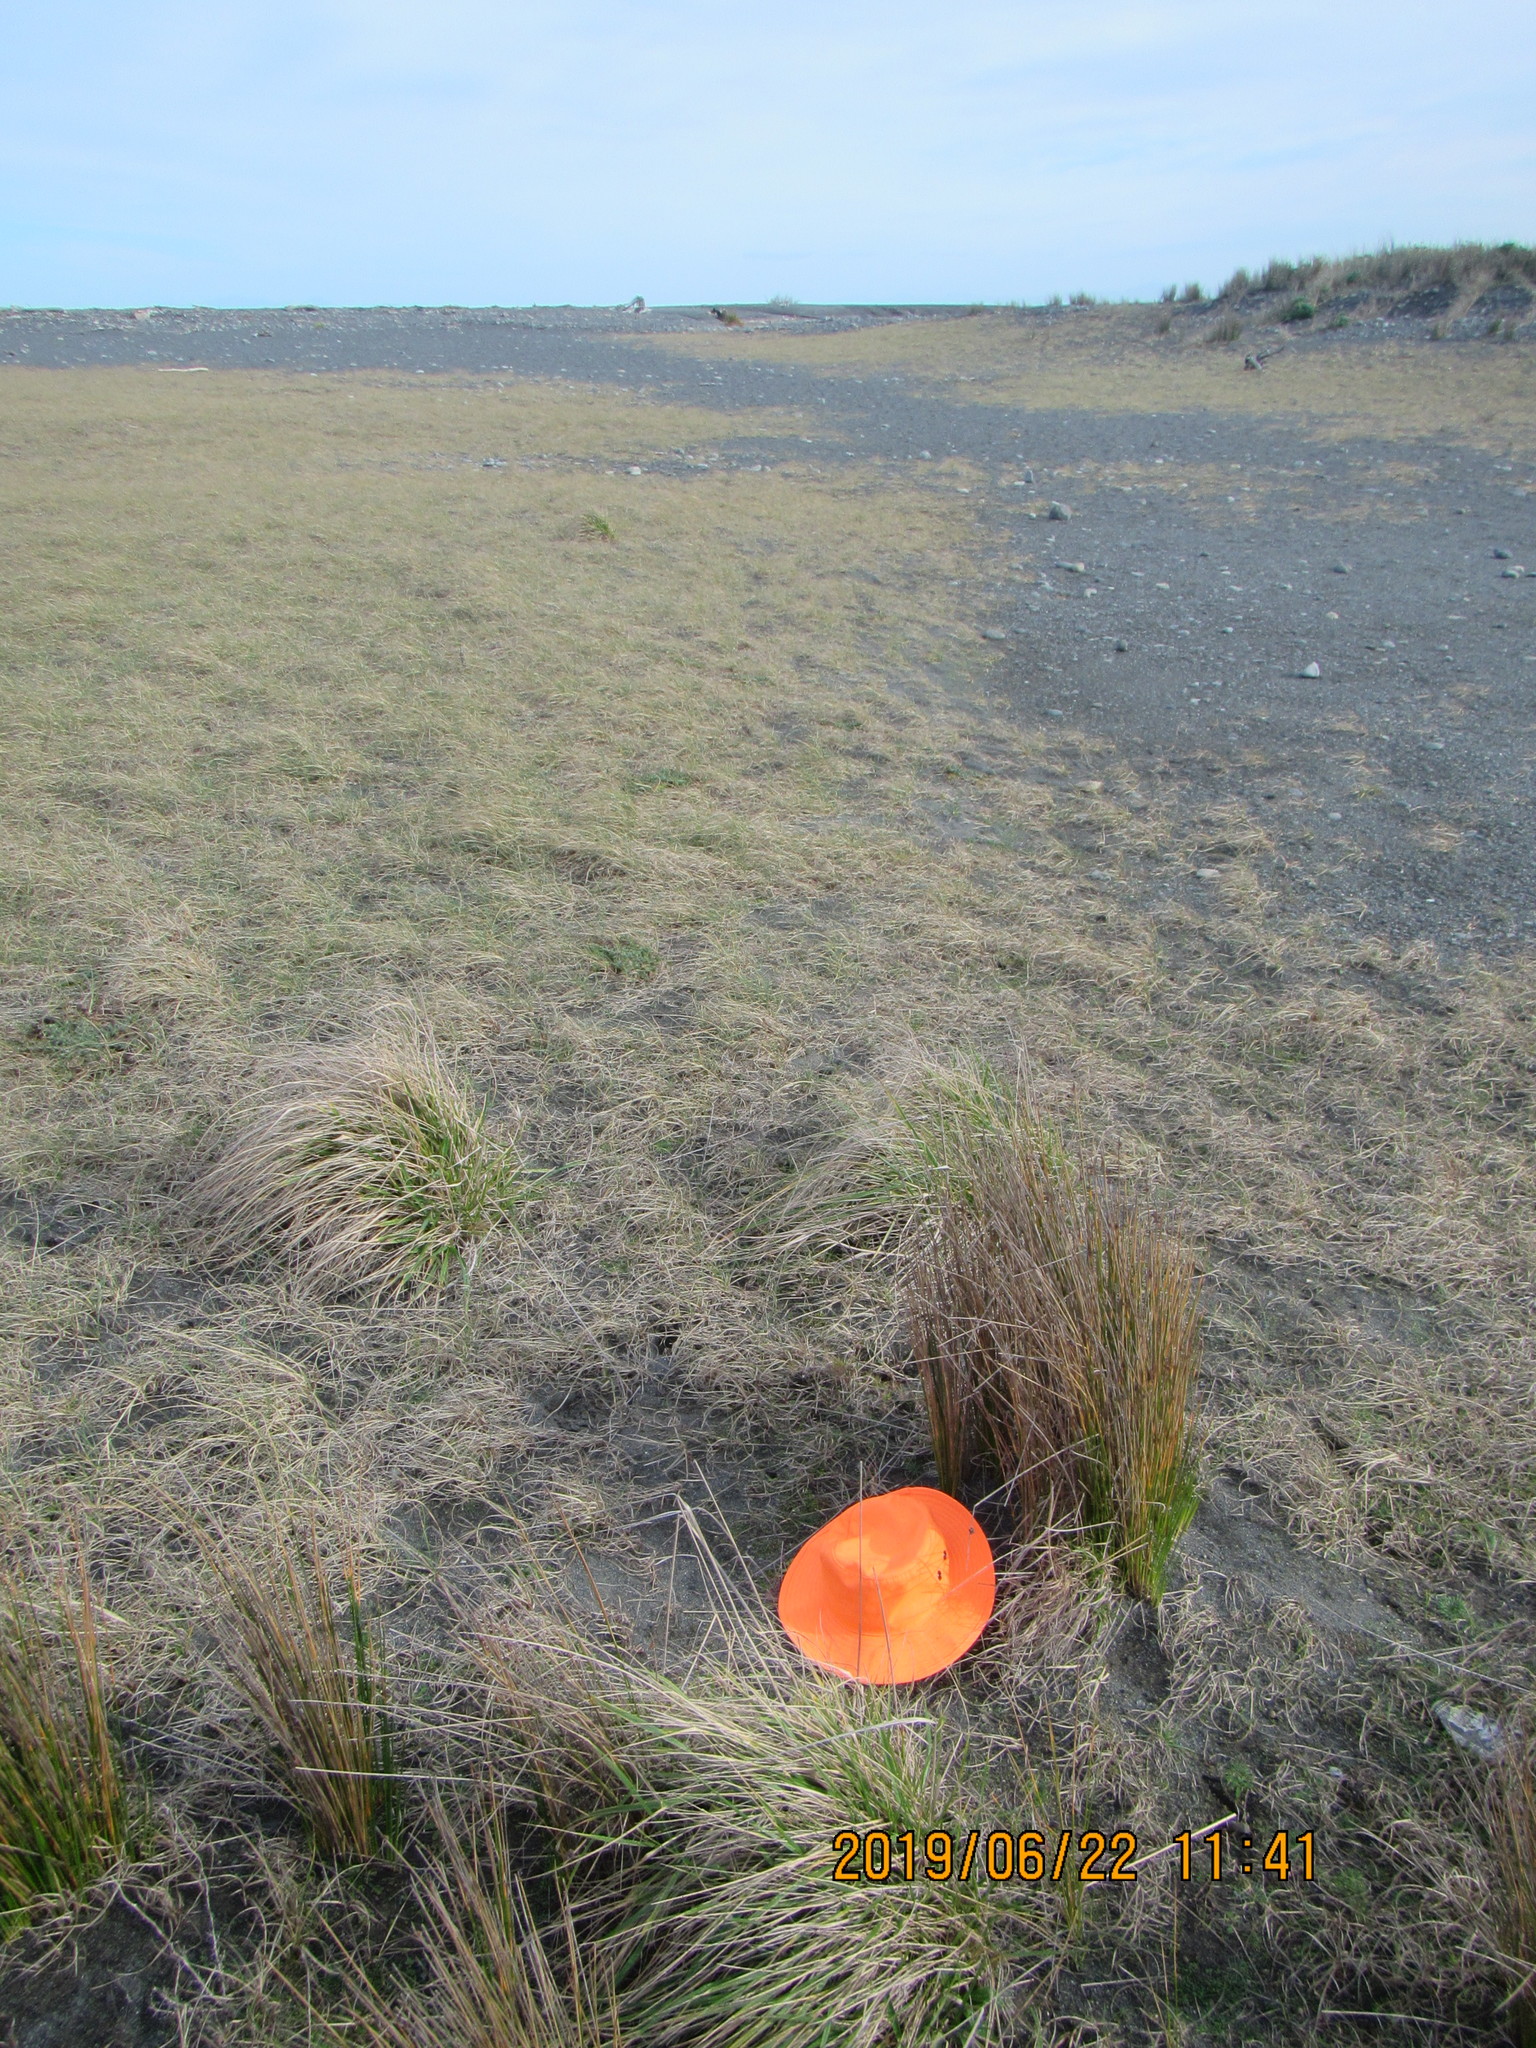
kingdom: Plantae
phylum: Tracheophyta
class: Liliopsida
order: Poales
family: Cyperaceae
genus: Ficinia
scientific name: Ficinia nodosa
